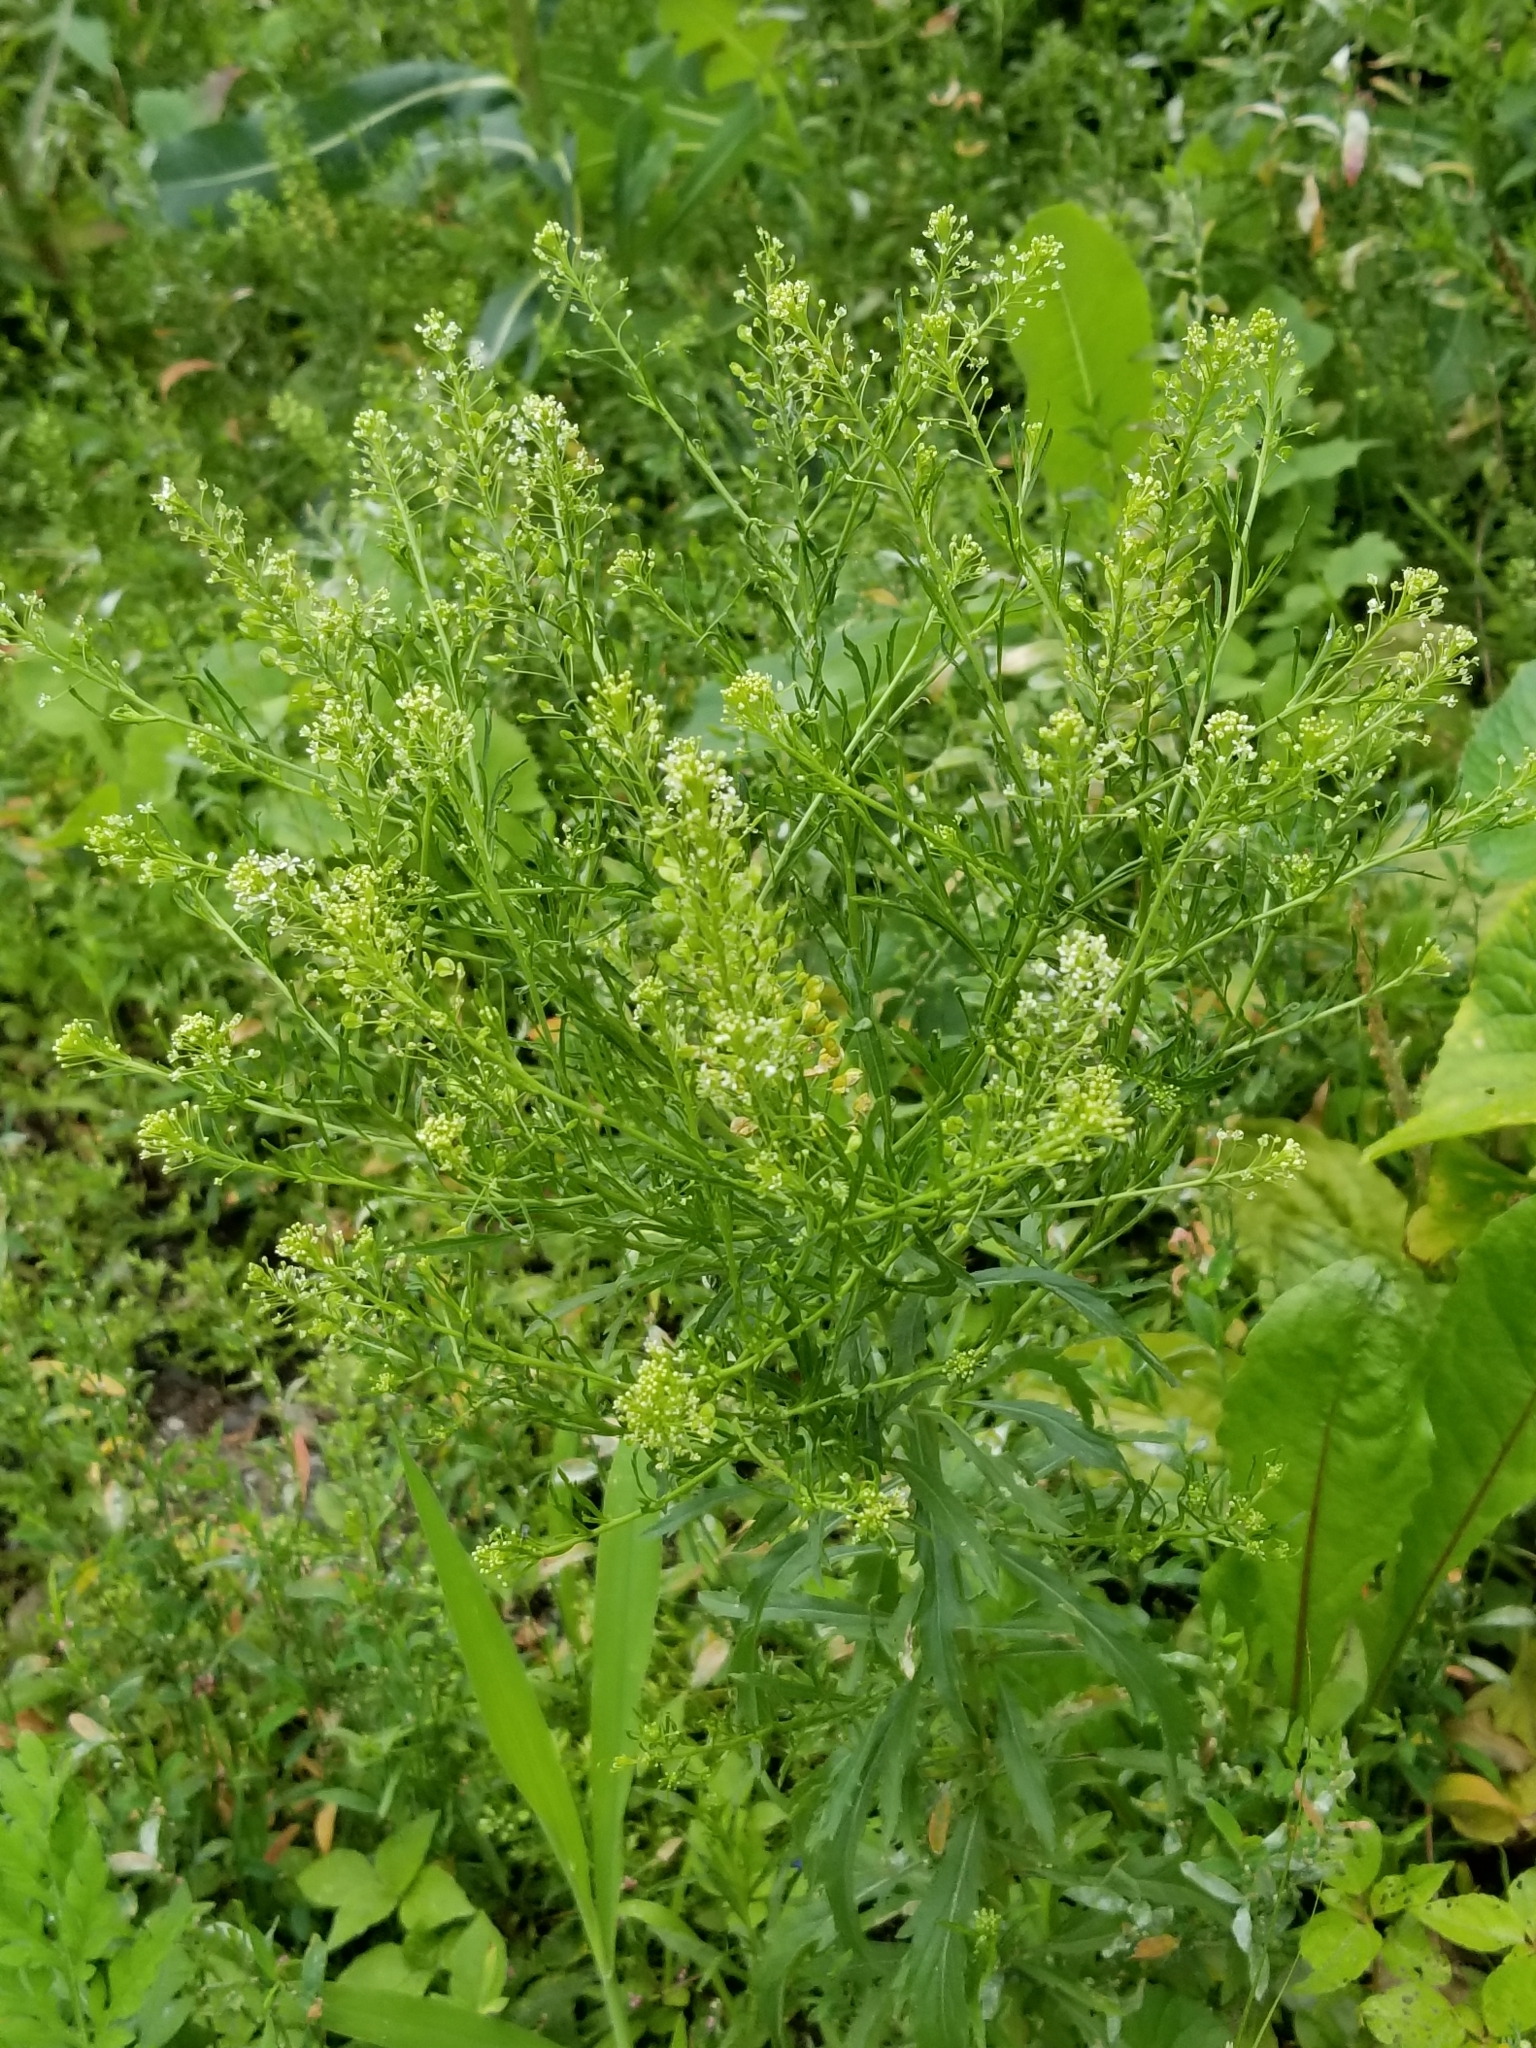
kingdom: Plantae
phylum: Tracheophyta
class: Magnoliopsida
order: Brassicales
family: Brassicaceae
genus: Lepidium
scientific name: Lepidium virginicum
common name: Least pepperwort
